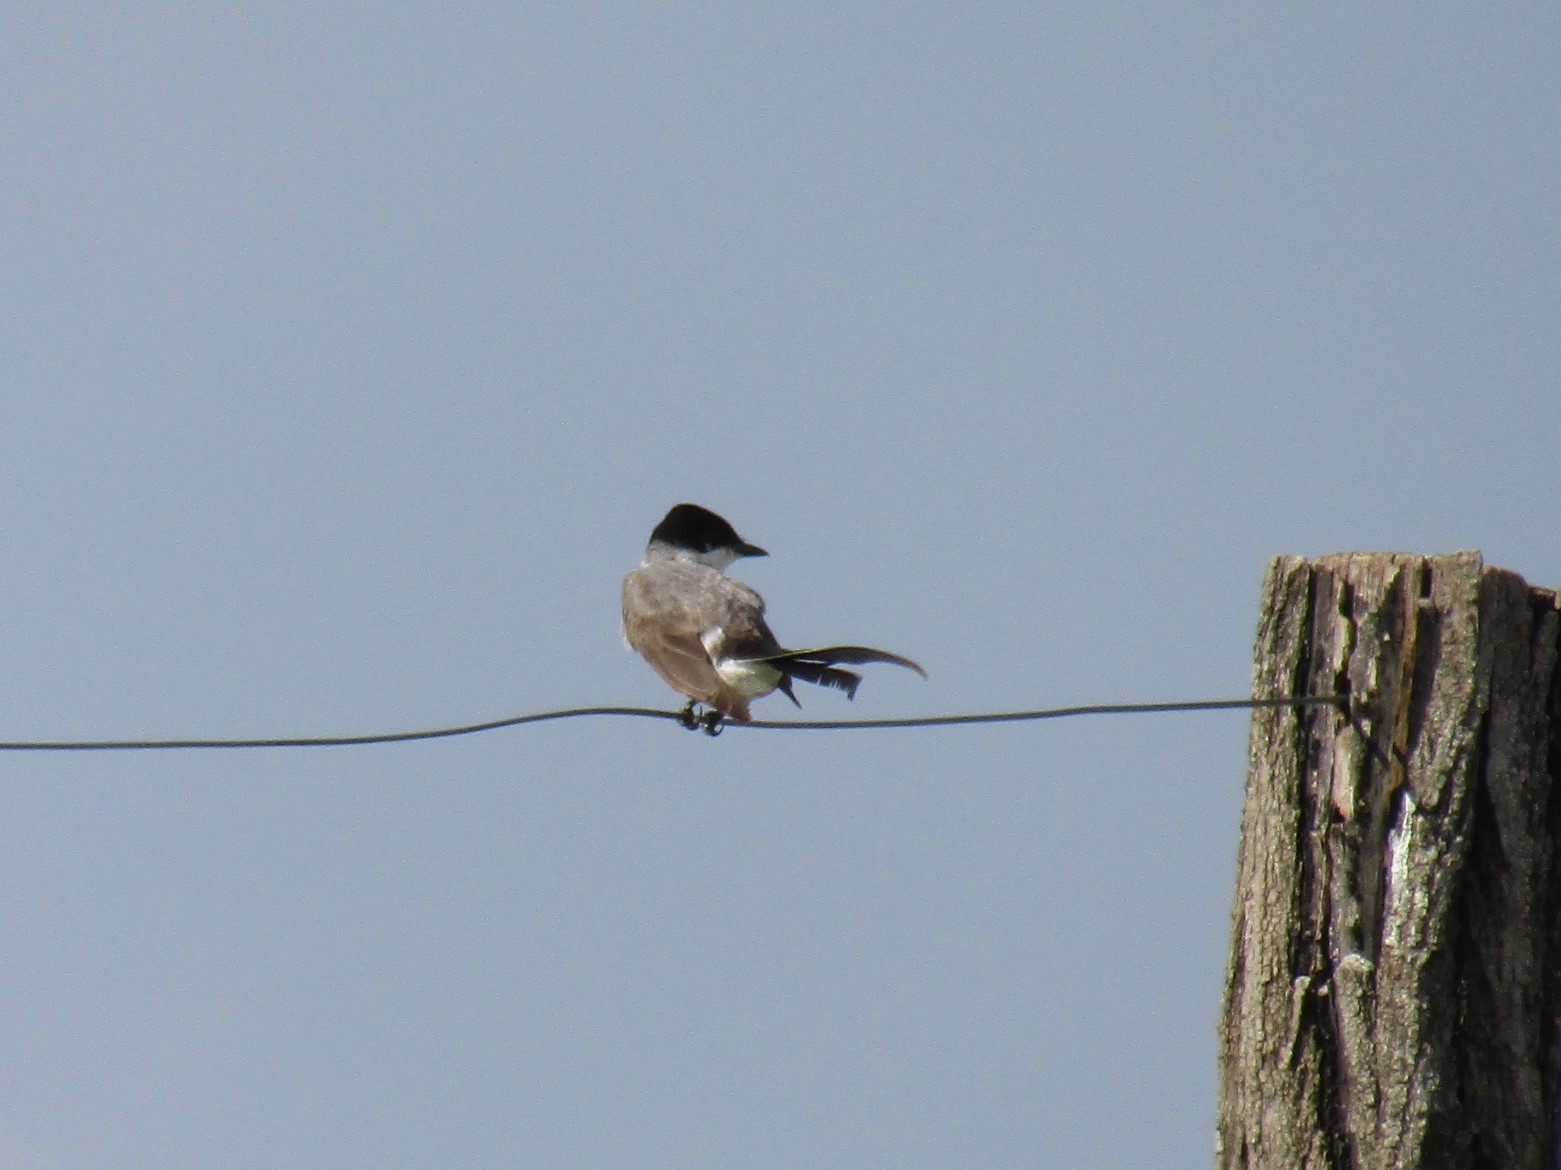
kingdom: Animalia
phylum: Chordata
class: Aves
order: Passeriformes
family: Tyrannidae
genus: Tyrannus
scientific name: Tyrannus savana
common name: Fork-tailed flycatcher
